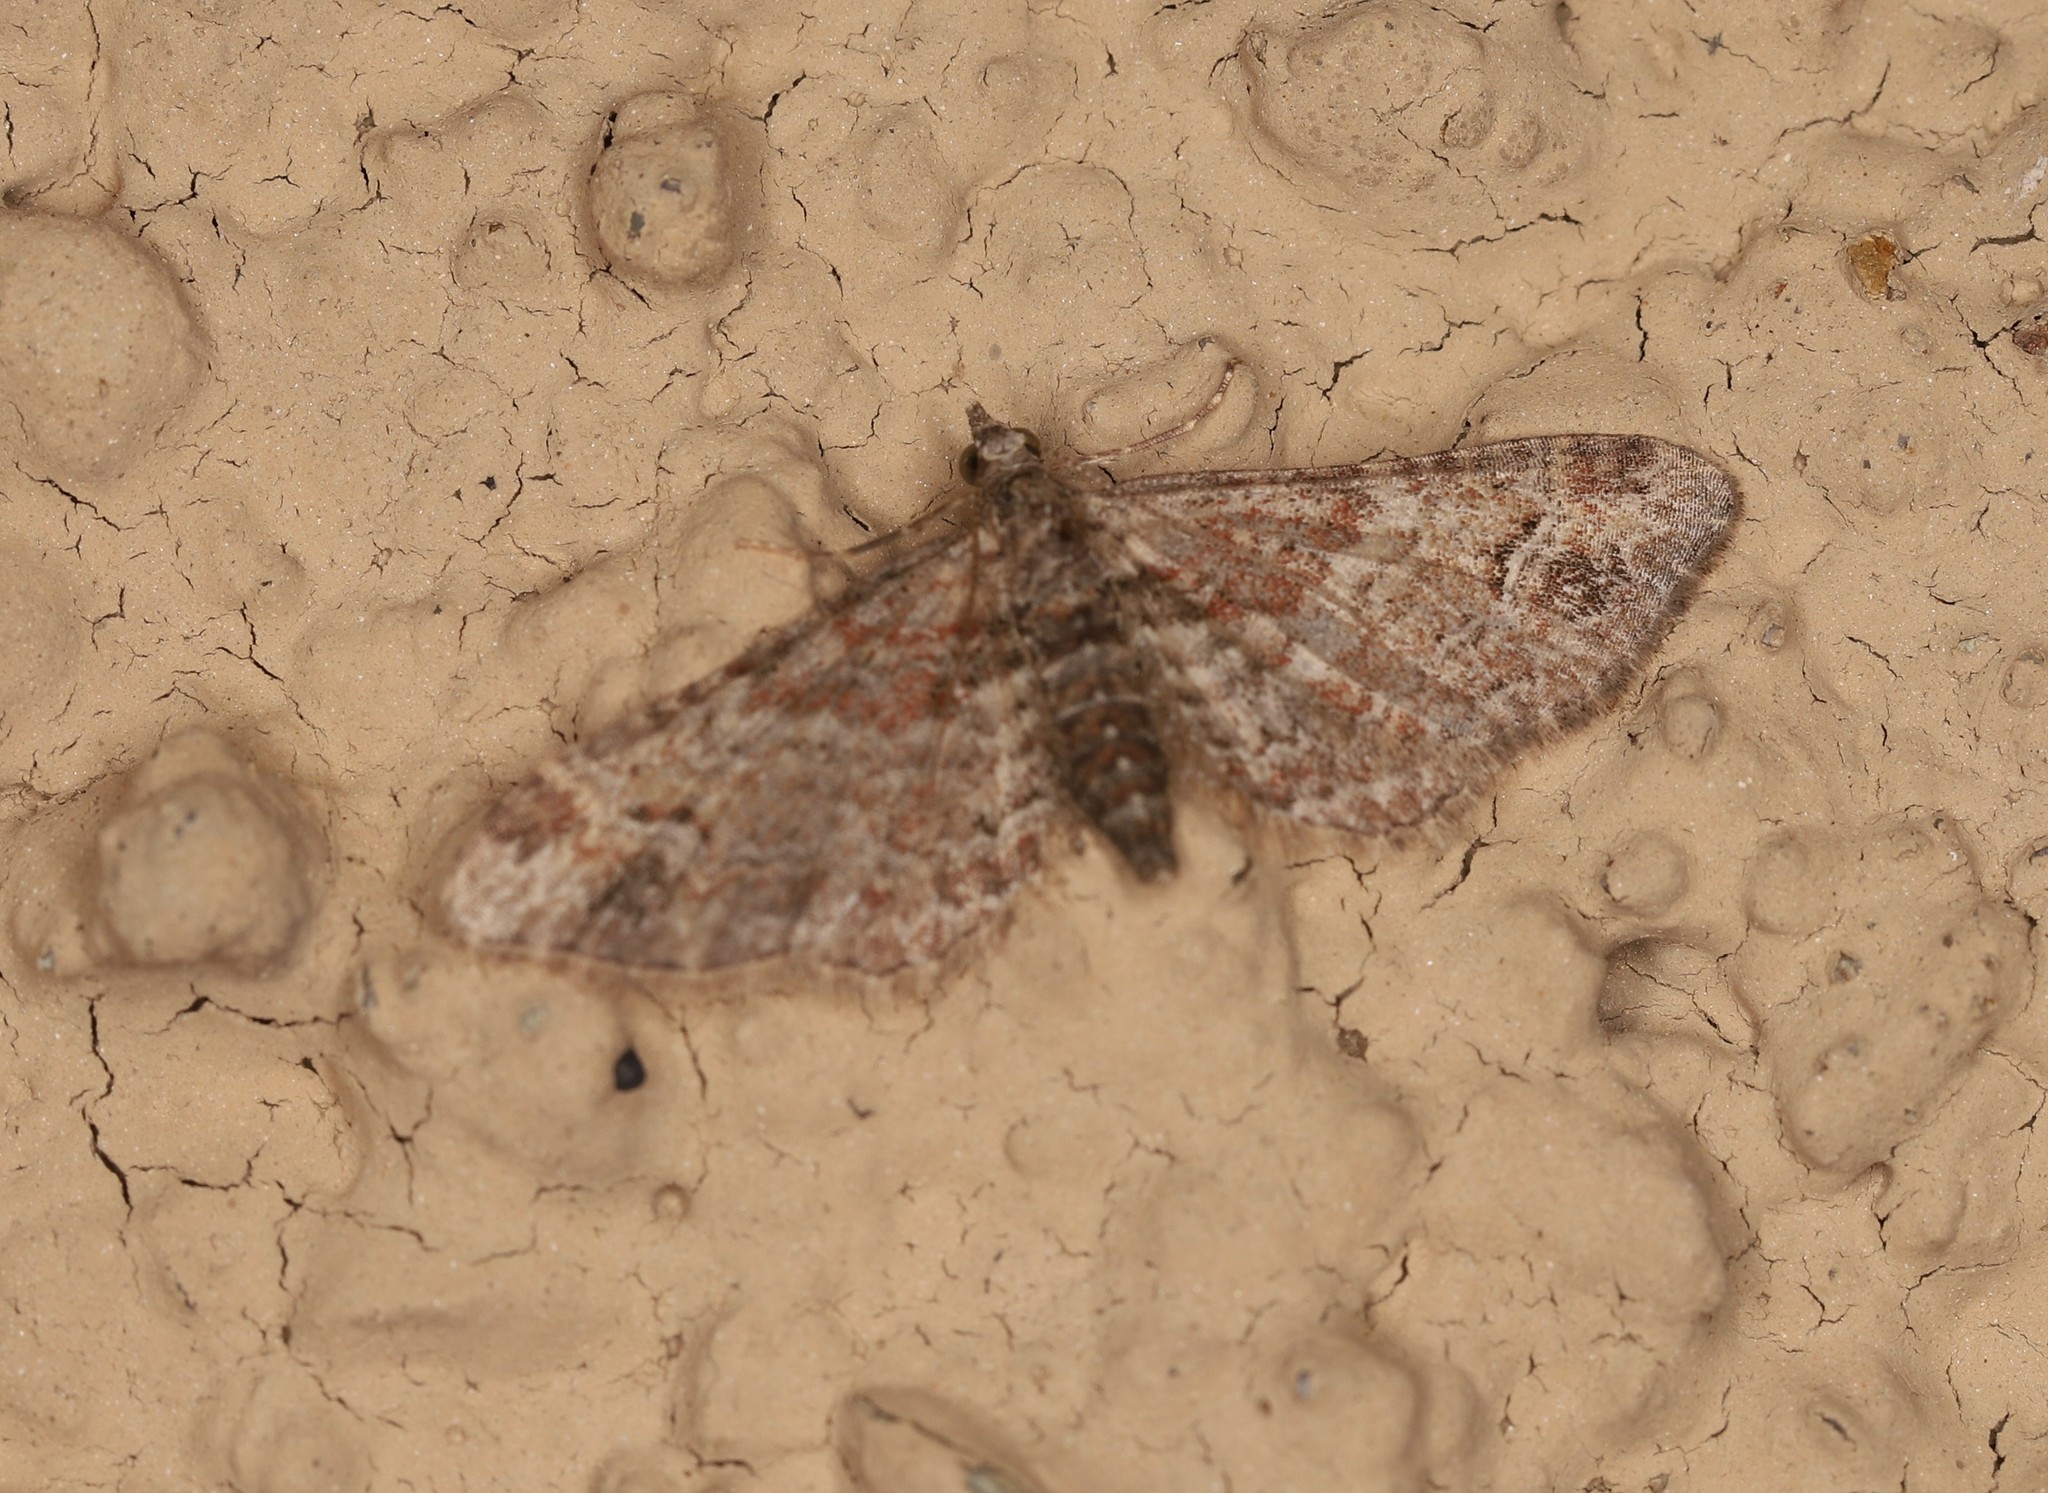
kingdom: Animalia
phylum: Arthropoda
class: Insecta
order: Lepidoptera
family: Geometridae
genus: Gymnoscelis
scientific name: Gymnoscelis rufifasciata
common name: Double-striped pug
